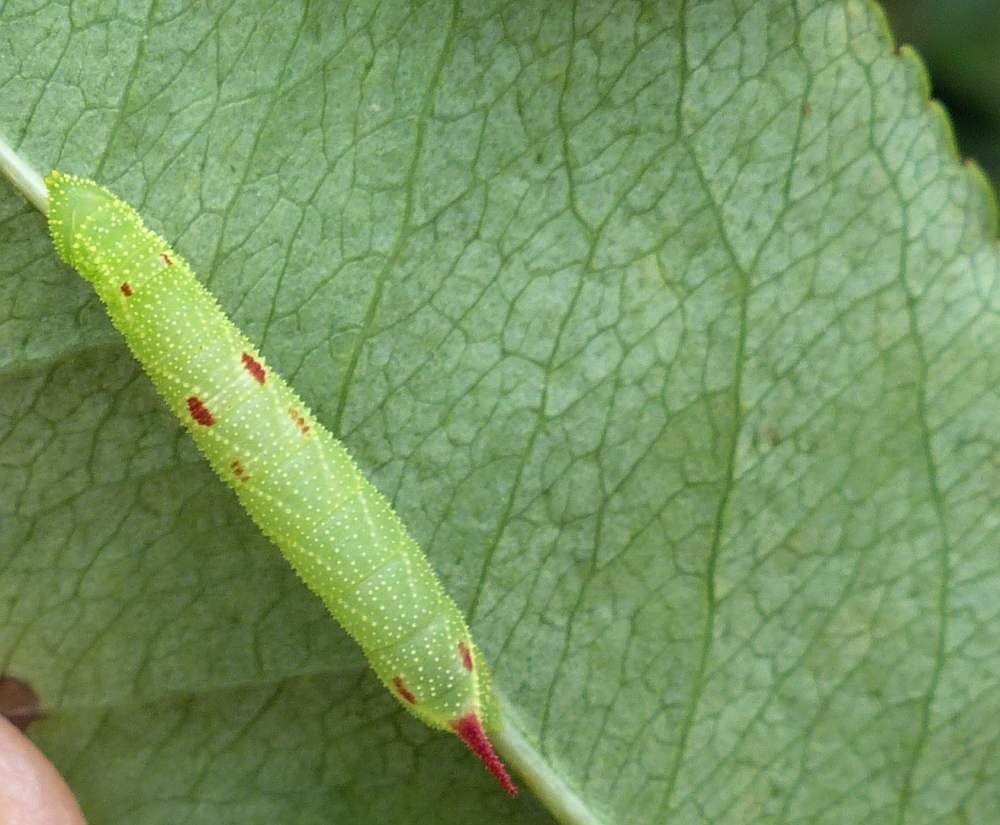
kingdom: Animalia
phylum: Arthropoda
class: Insecta
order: Lepidoptera
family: Sphingidae
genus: Paonias
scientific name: Paonias myops
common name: Small-eyed sphinx
